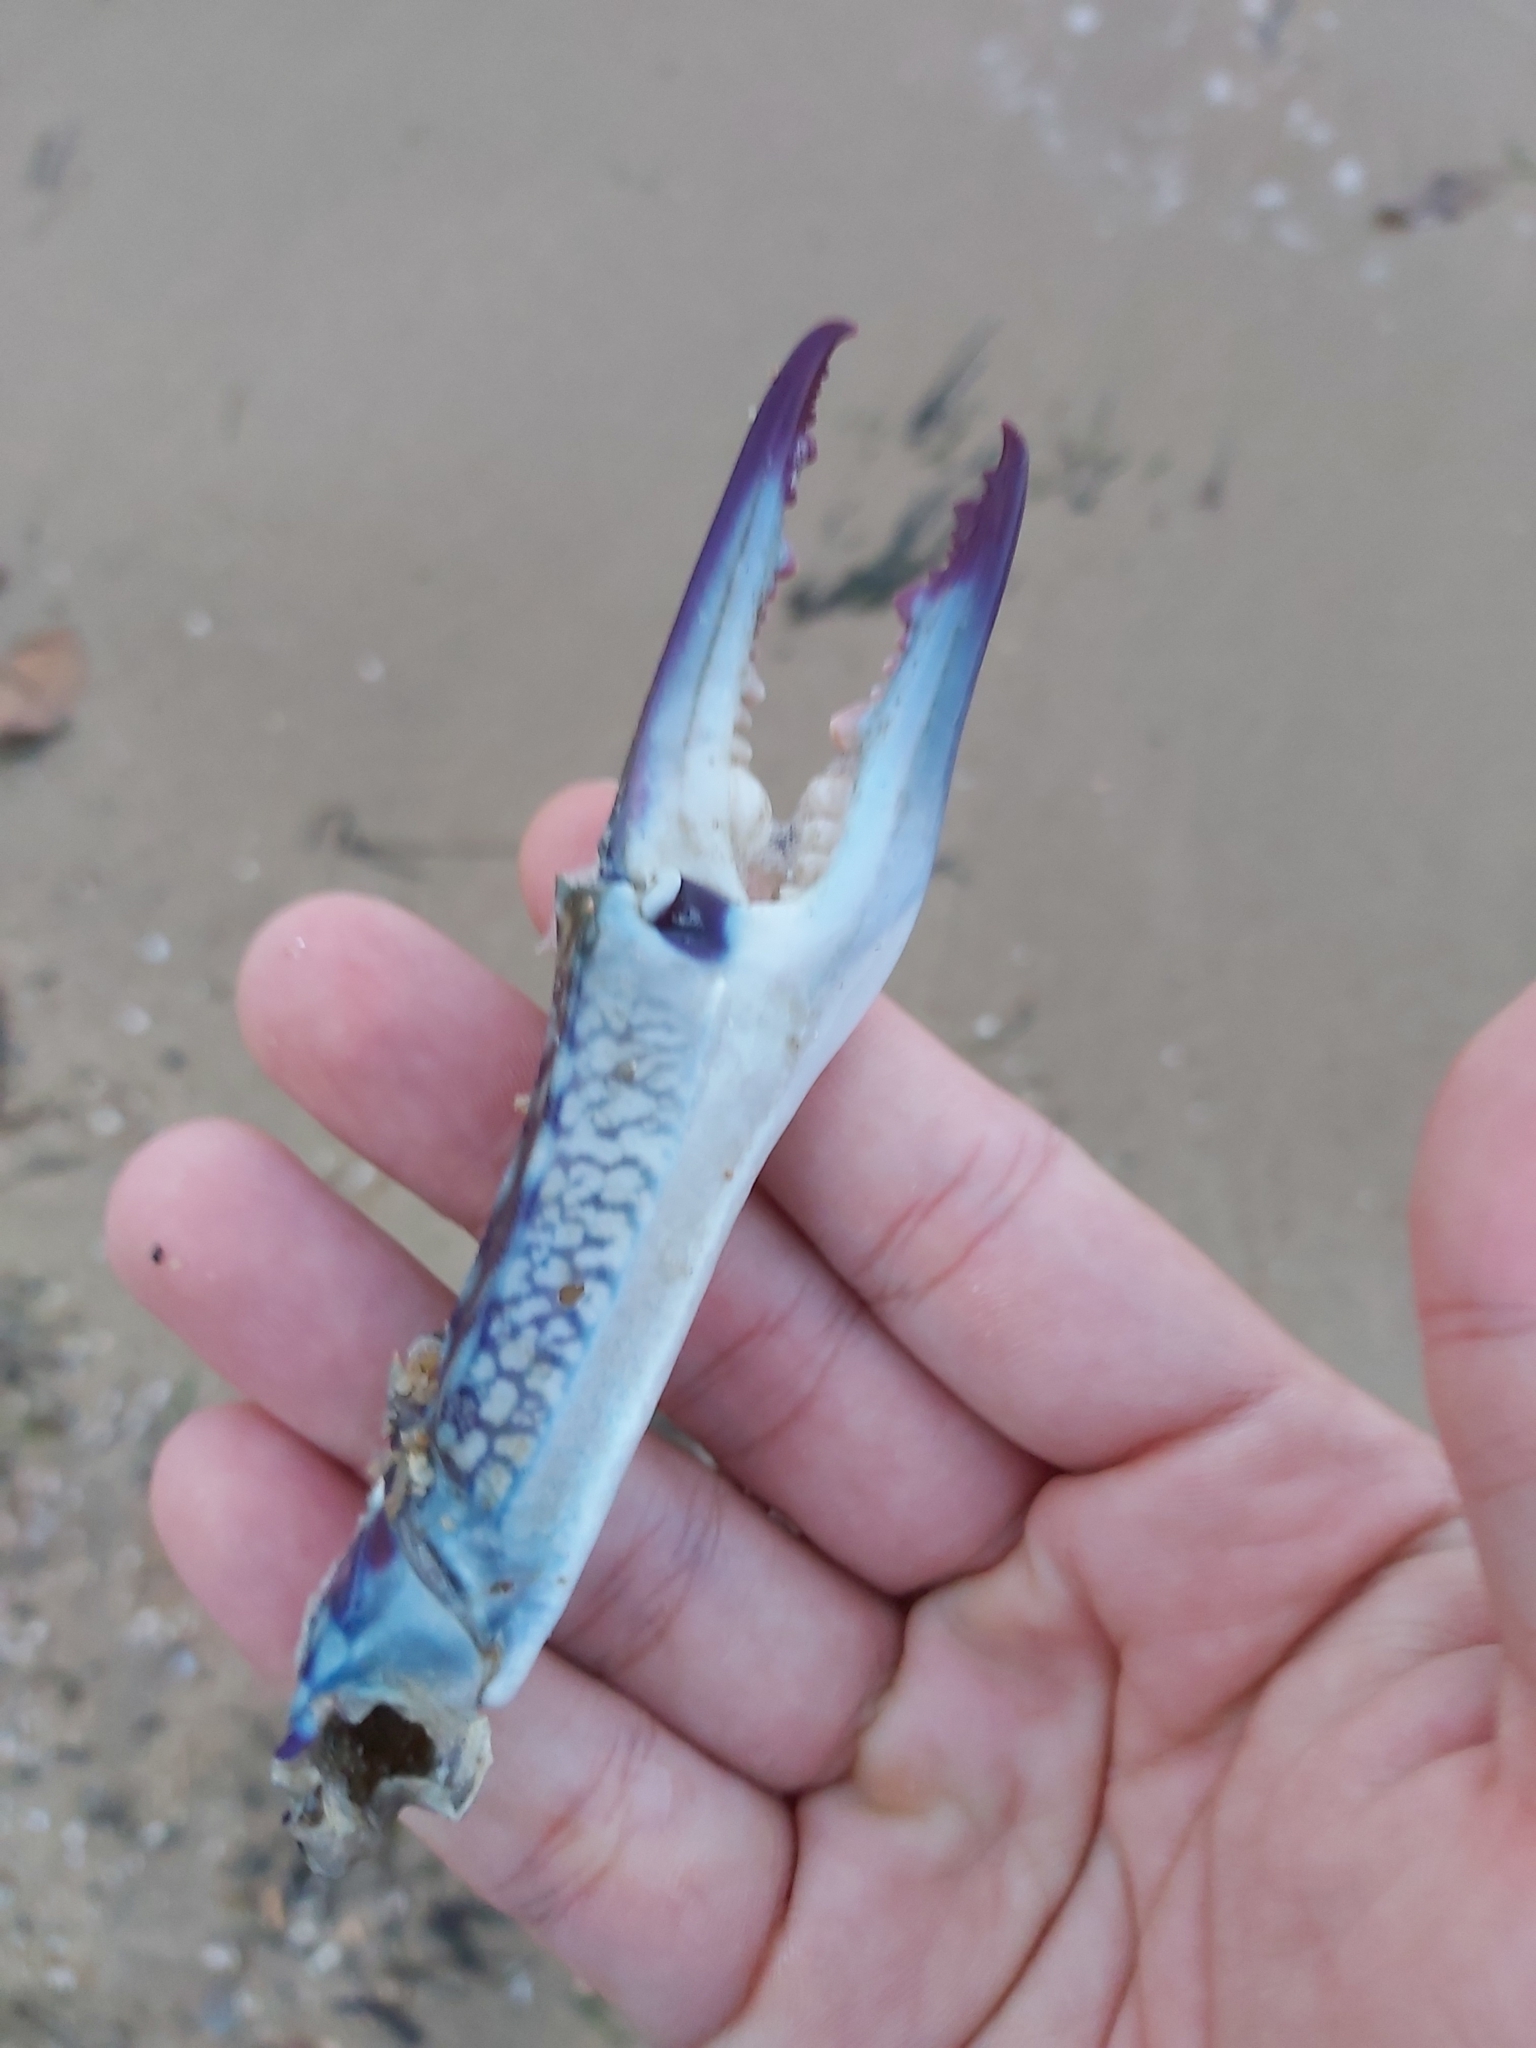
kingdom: Animalia
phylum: Arthropoda
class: Malacostraca
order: Decapoda
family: Portunidae
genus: Portunus
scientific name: Portunus armatus
